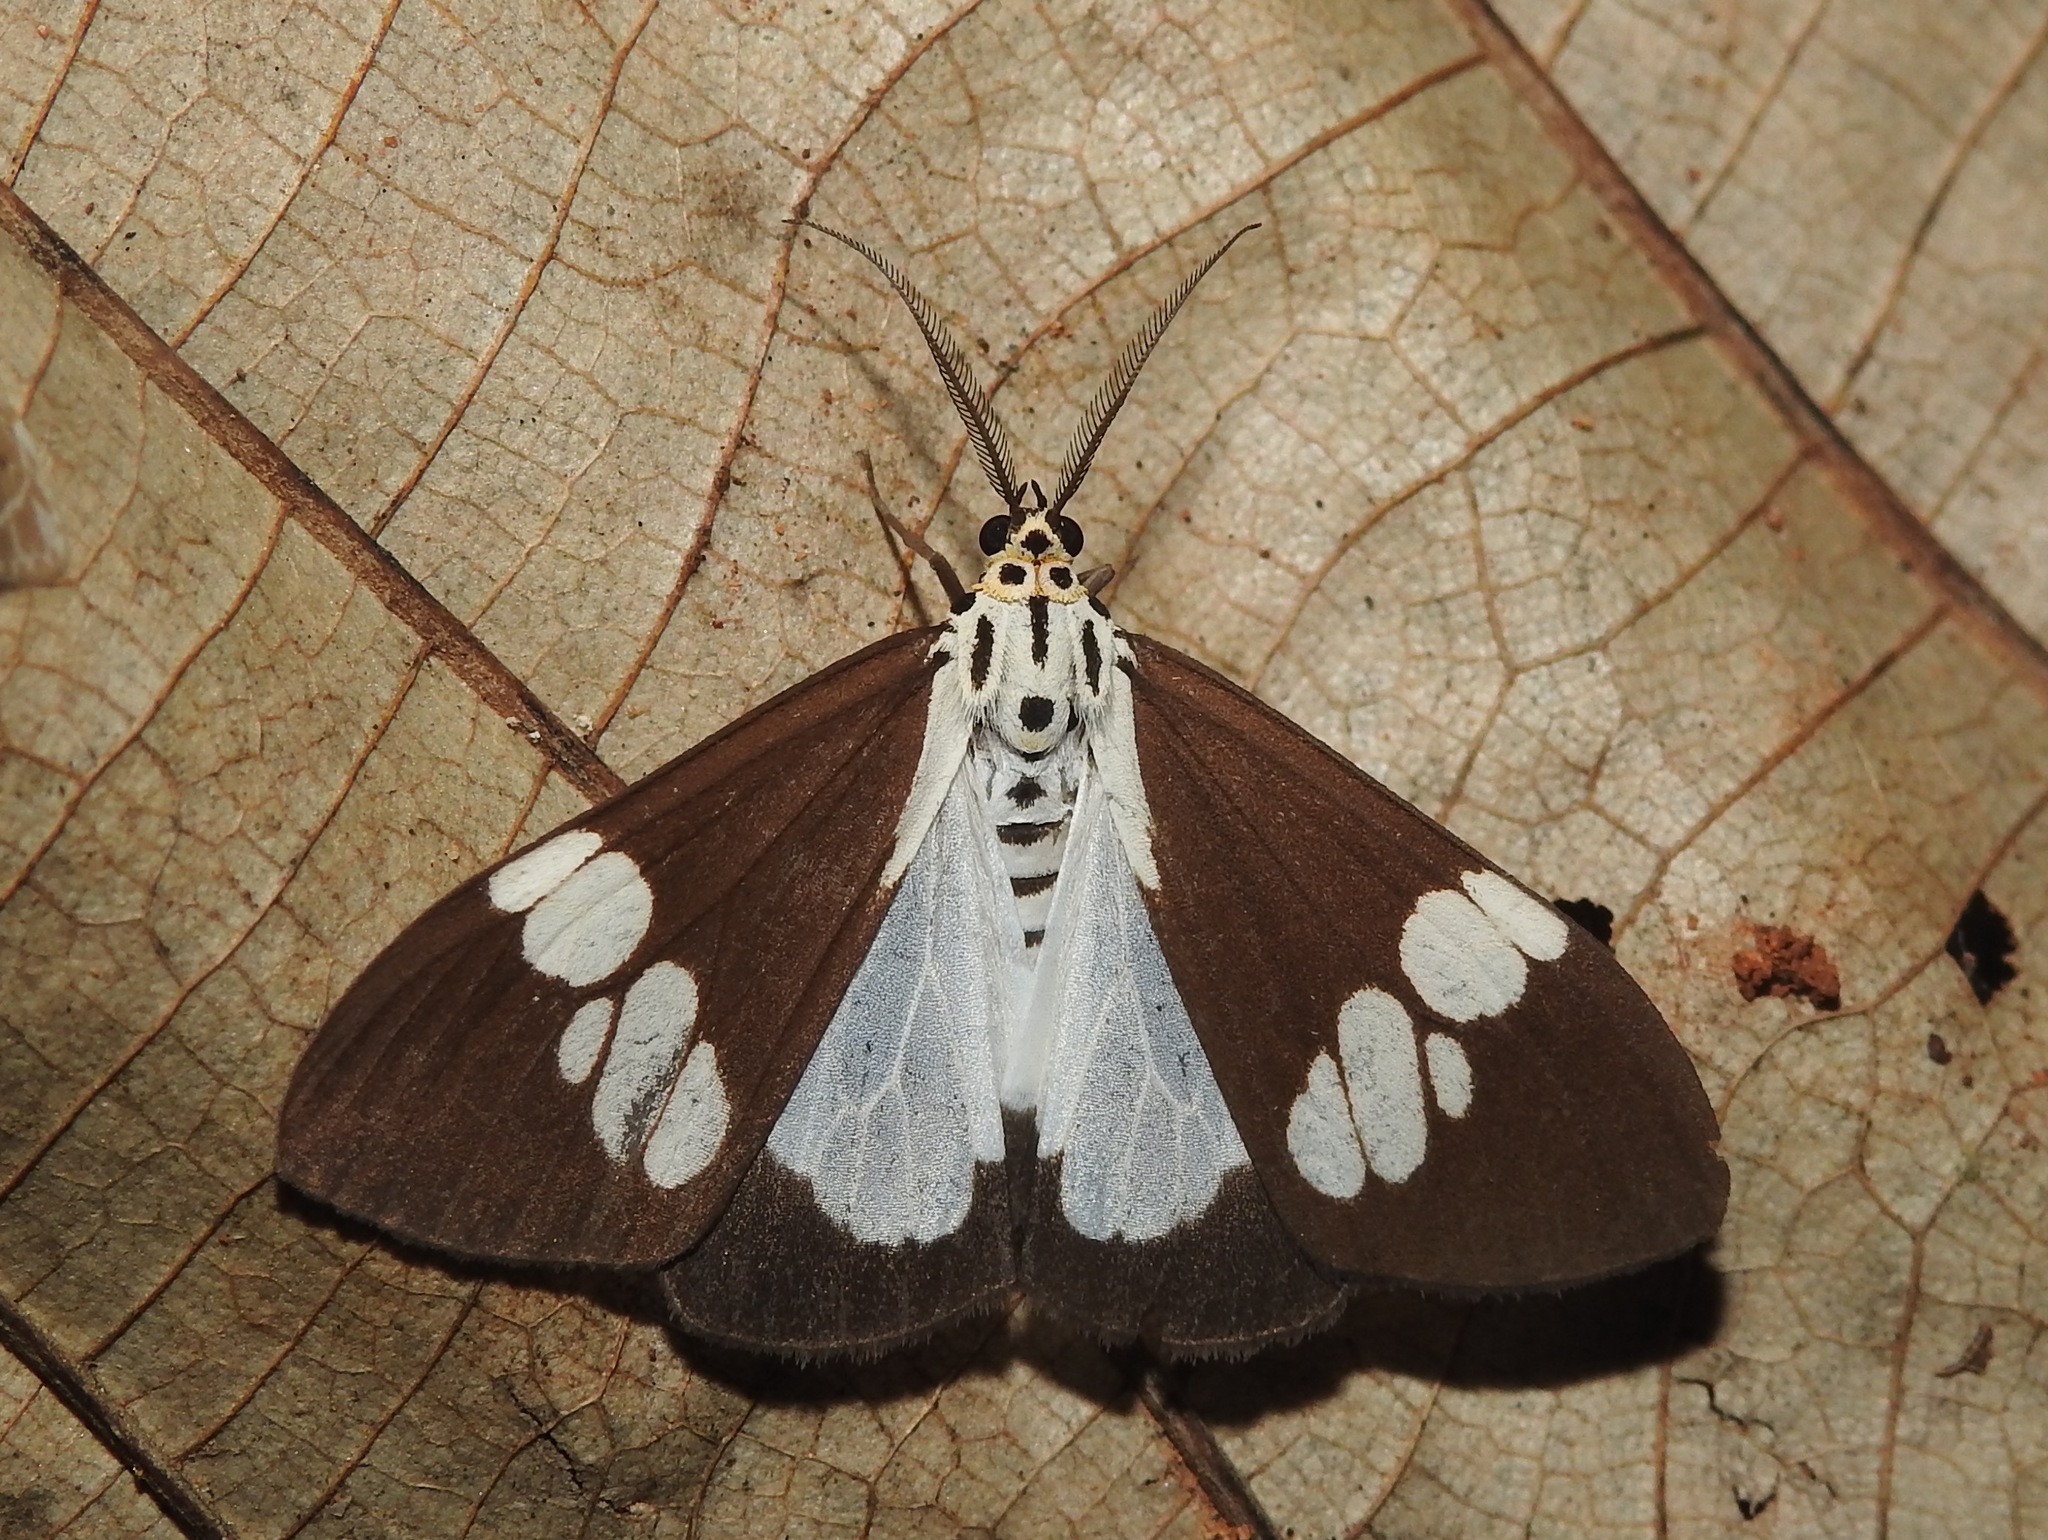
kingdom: Animalia
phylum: Arthropoda
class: Insecta
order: Lepidoptera
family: Erebidae
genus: Nyctemera
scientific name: Nyctemera lacticinia
